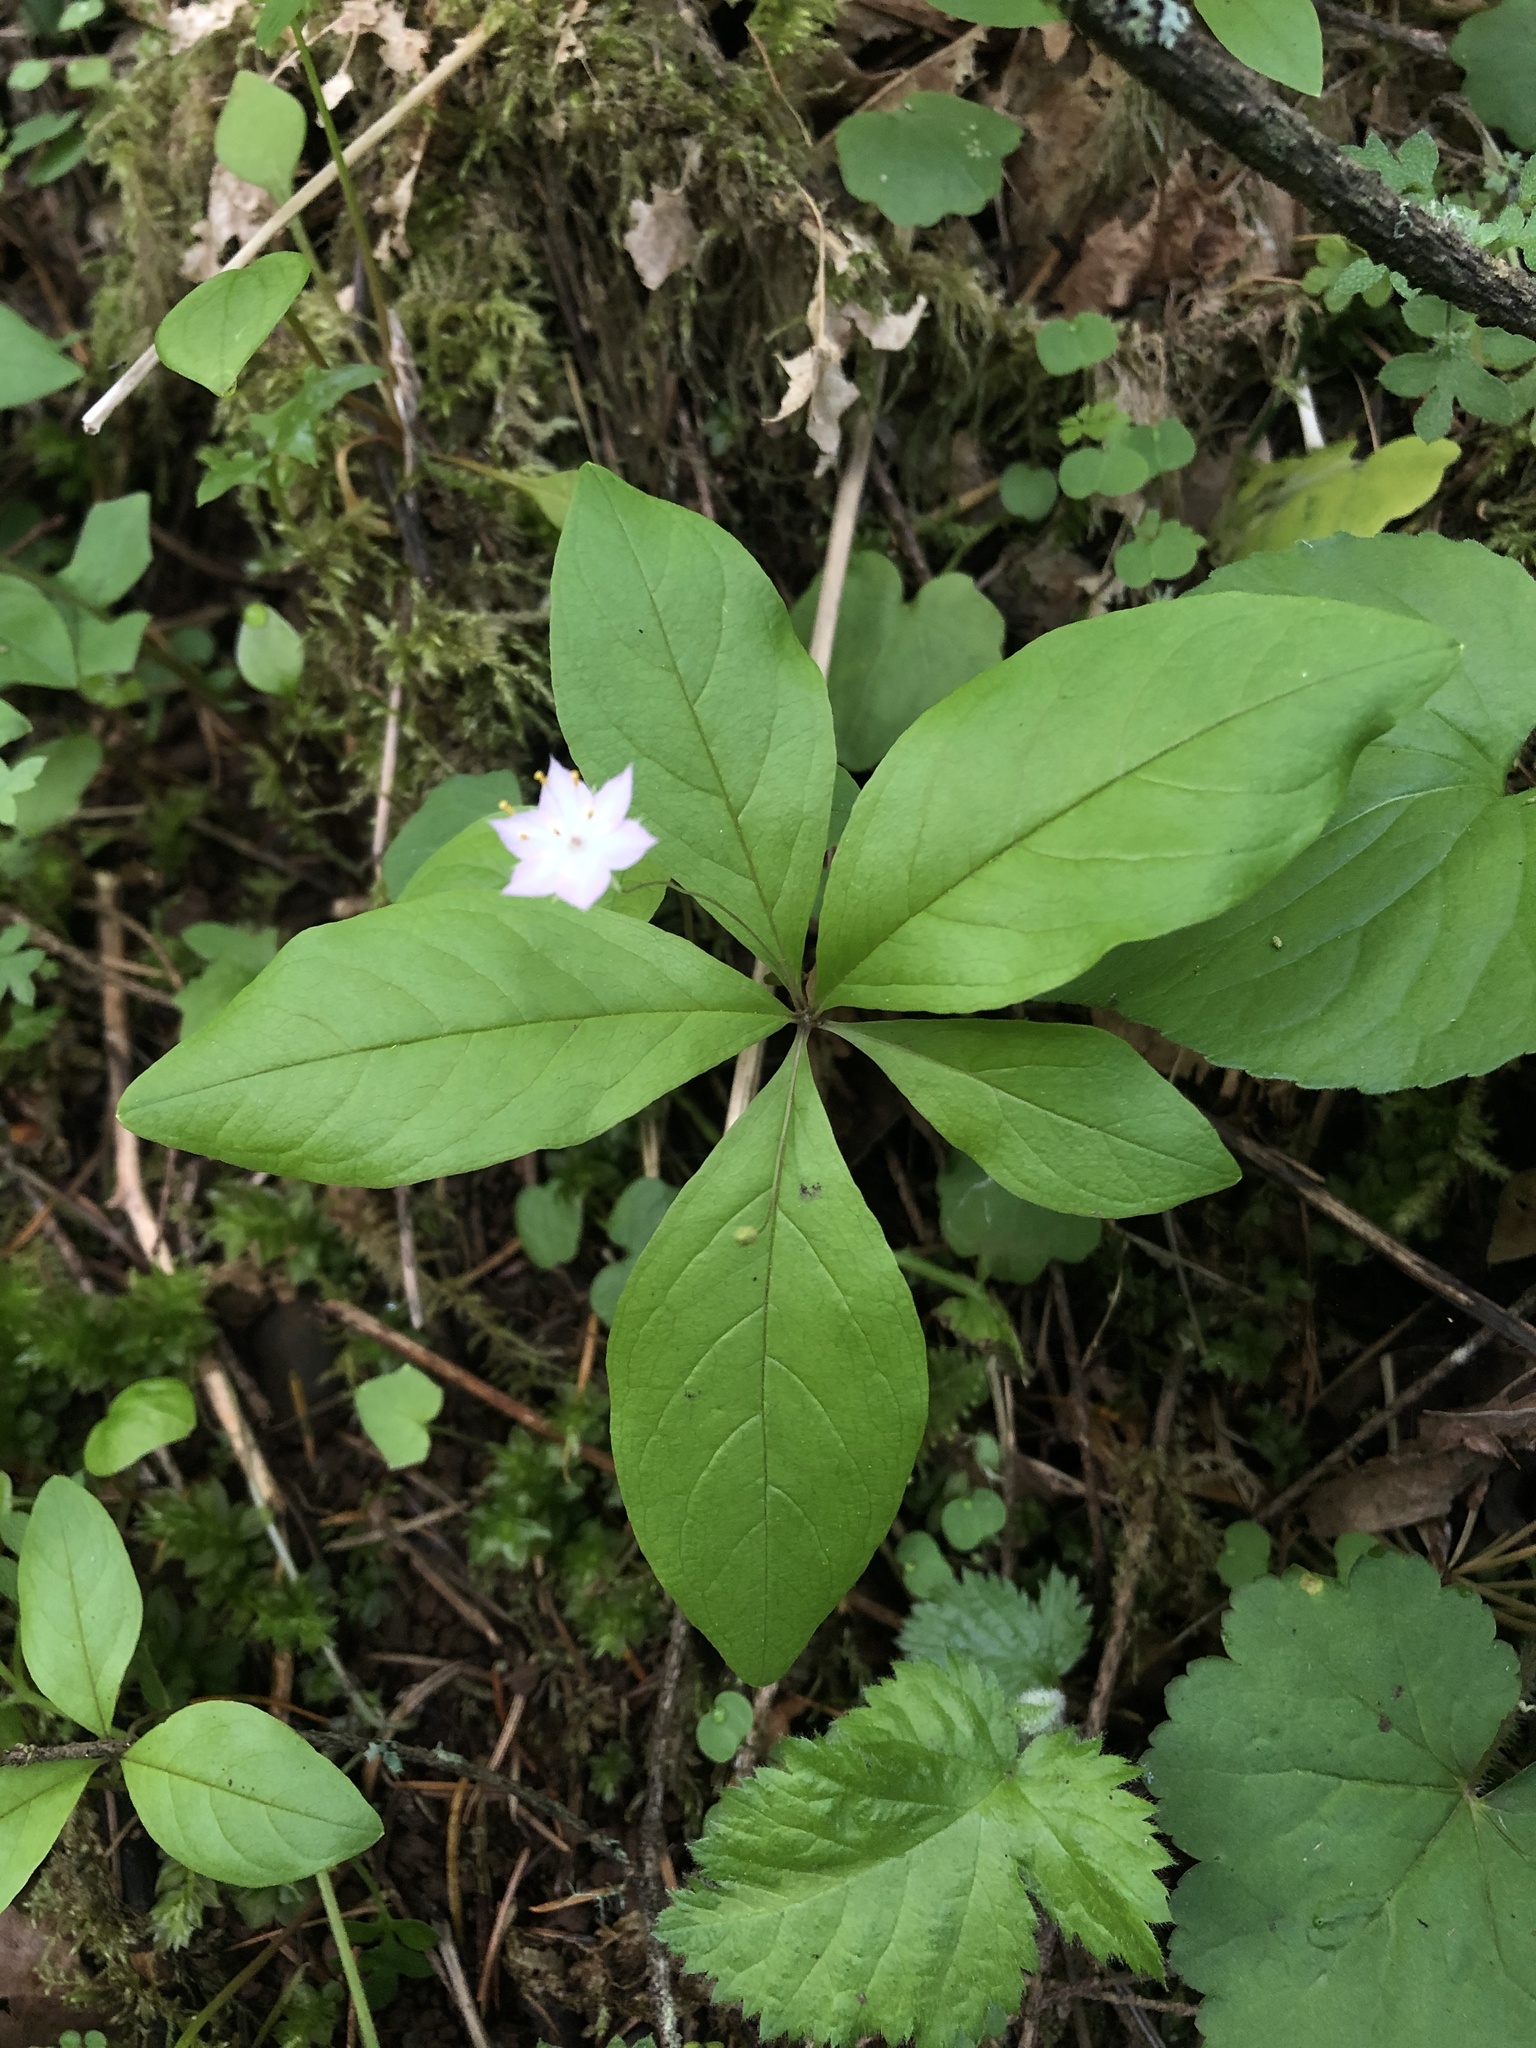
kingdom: Plantae
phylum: Tracheophyta
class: Magnoliopsida
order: Ericales
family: Primulaceae
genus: Lysimachia
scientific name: Lysimachia latifolia
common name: Pacific starflower
